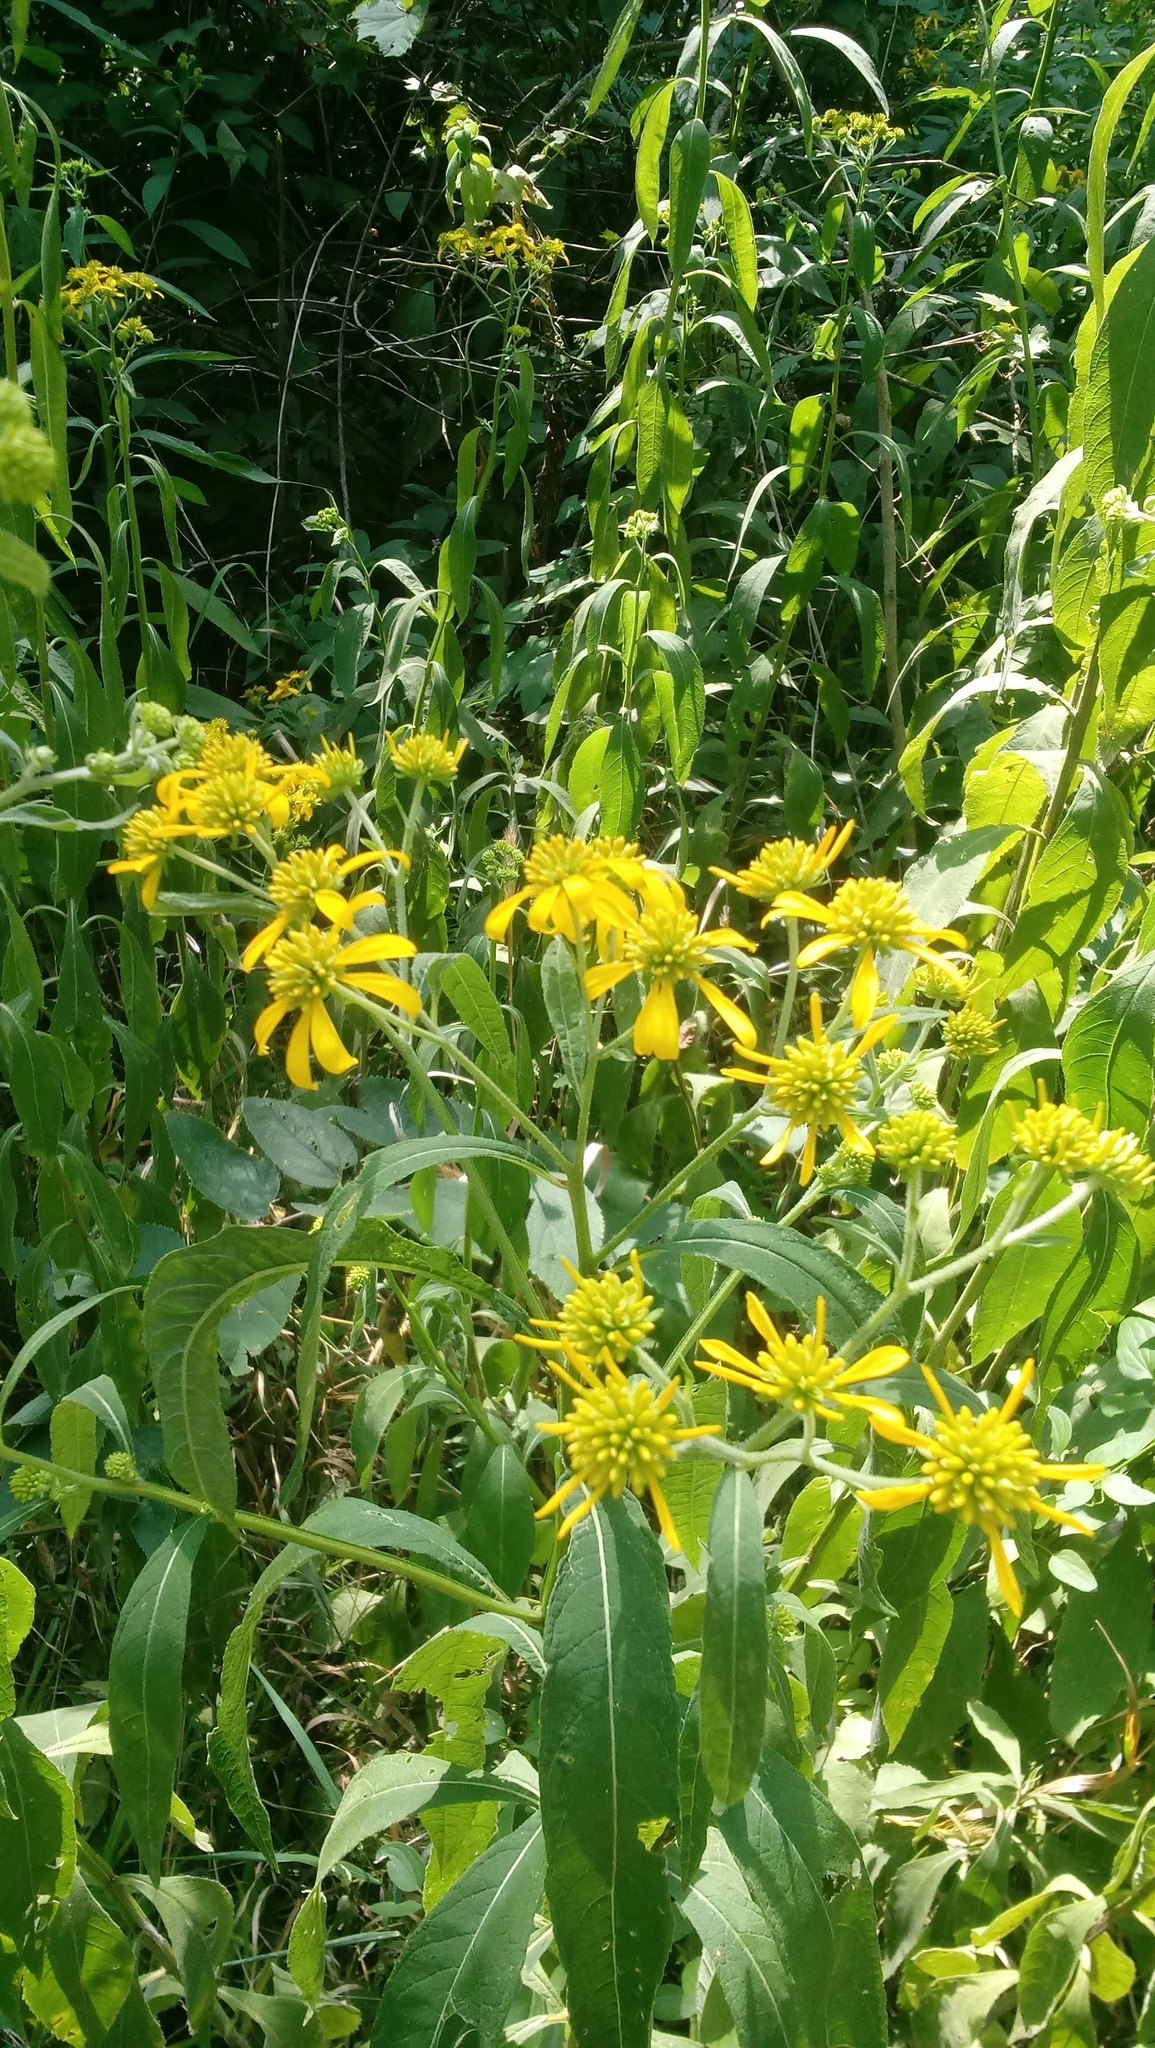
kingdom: Plantae
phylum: Tracheophyta
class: Magnoliopsida
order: Asterales
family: Asteraceae
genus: Verbesina
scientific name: Verbesina alternifolia
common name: Wingstem
